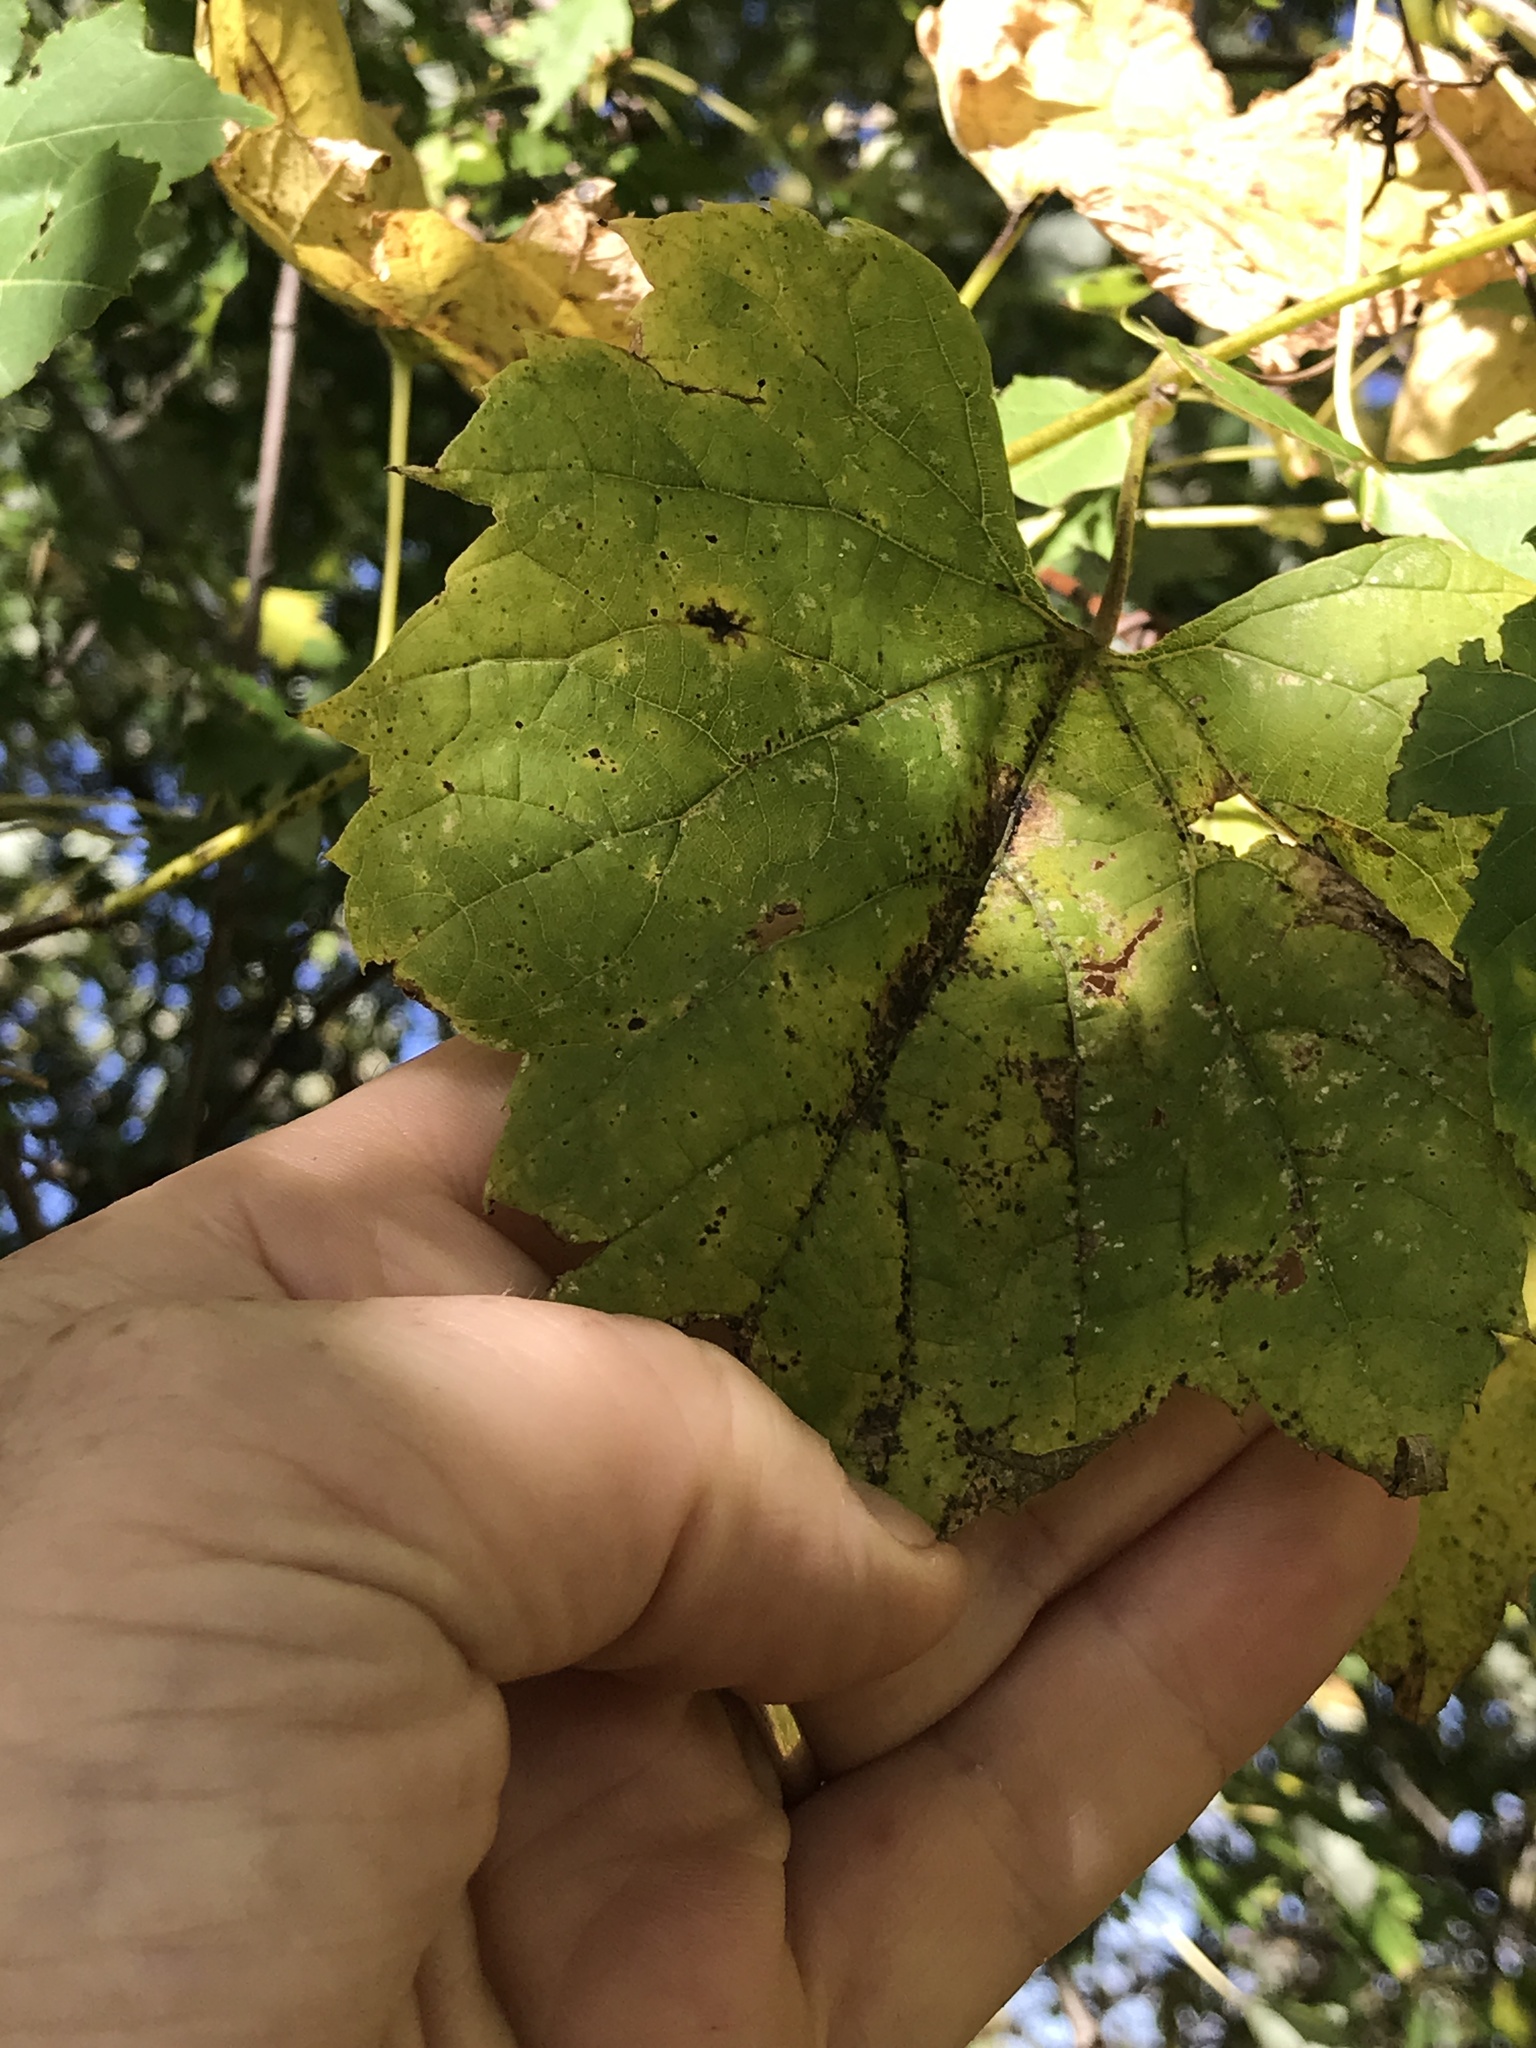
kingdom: Plantae
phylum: Tracheophyta
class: Magnoliopsida
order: Vitales
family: Vitaceae
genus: Vitis
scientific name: Vitis riparia
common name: Frost grape
